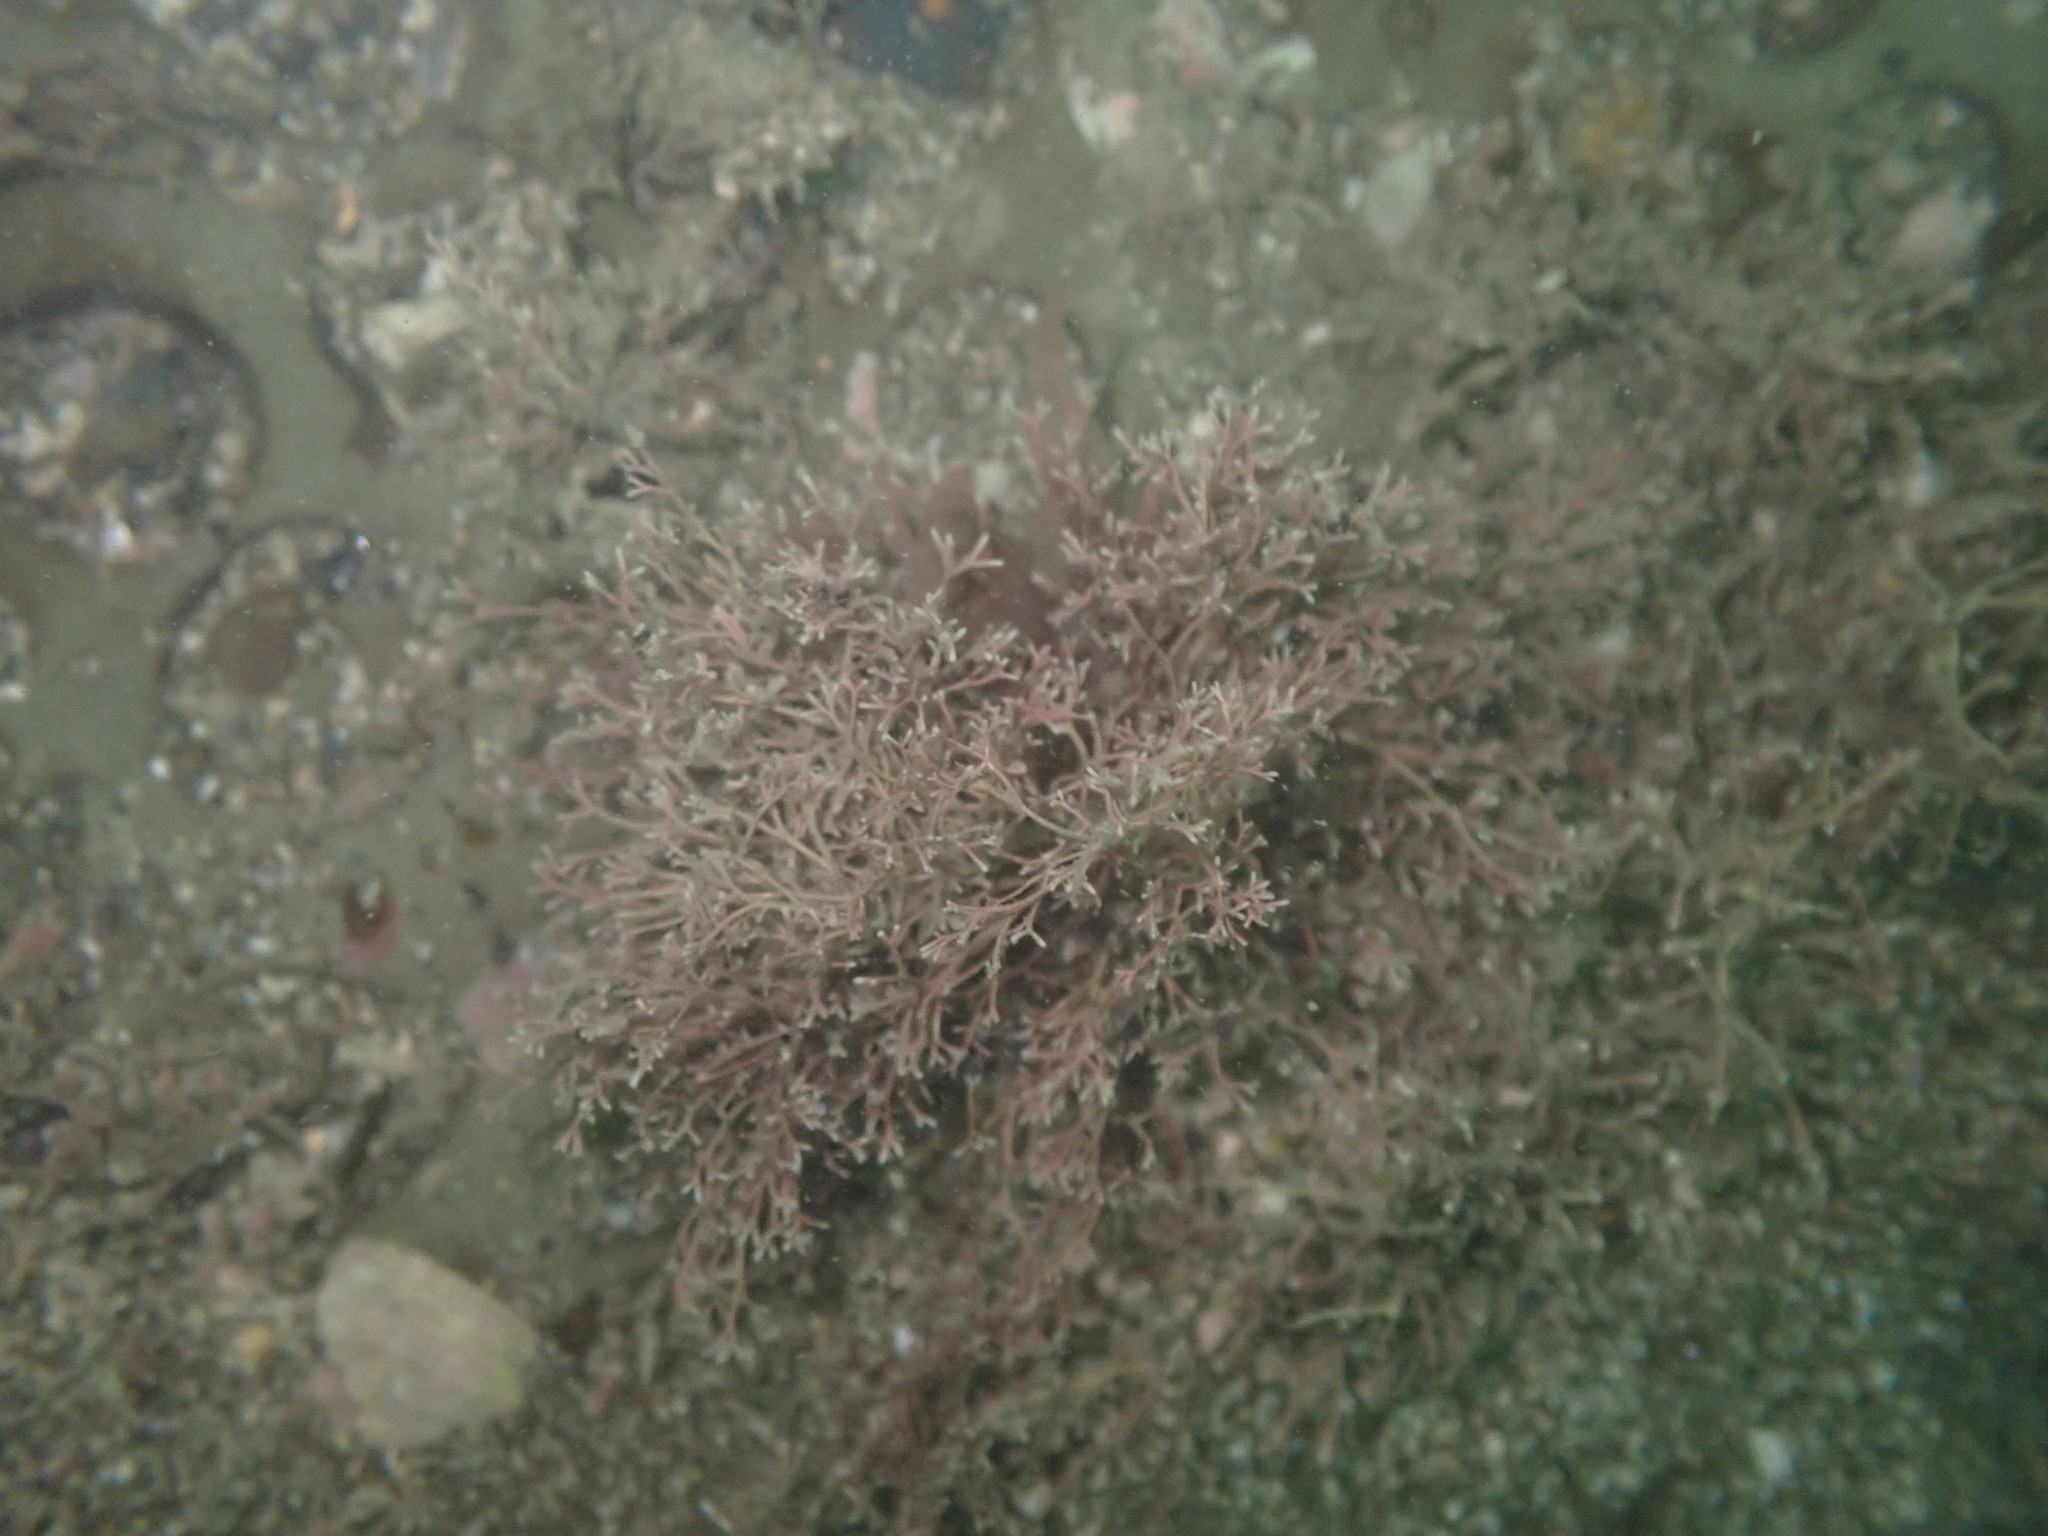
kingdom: Plantae
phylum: Rhodophyta
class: Florideophyceae
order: Corallinales
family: Corallinaceae
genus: Jania
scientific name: Jania sphaeroramosa
